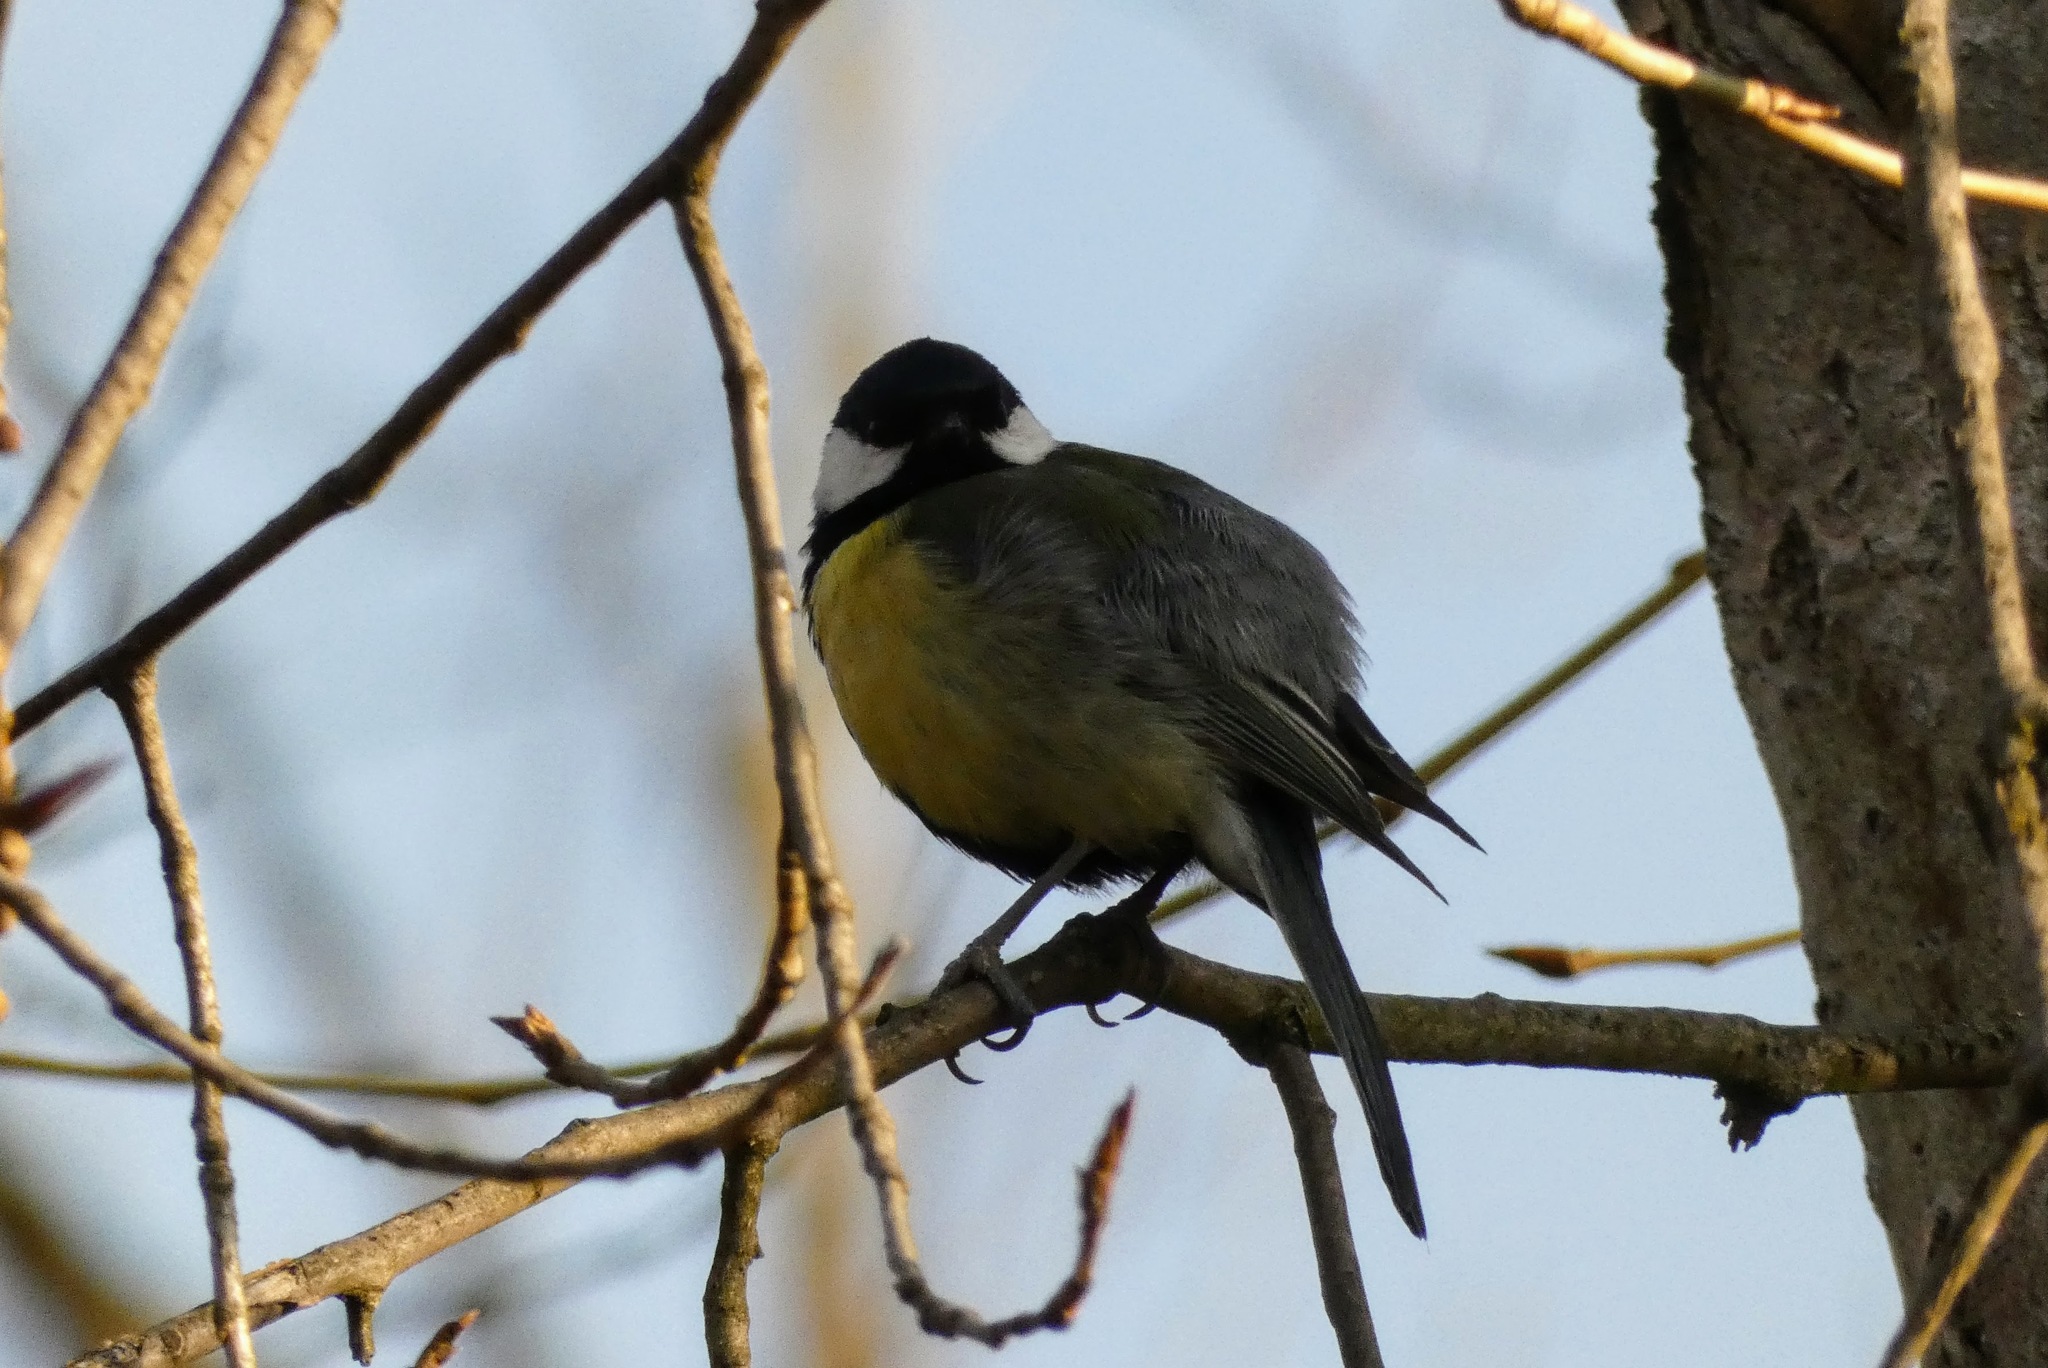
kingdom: Animalia
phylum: Chordata
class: Aves
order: Passeriformes
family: Paridae
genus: Parus
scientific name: Parus major
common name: Great tit
